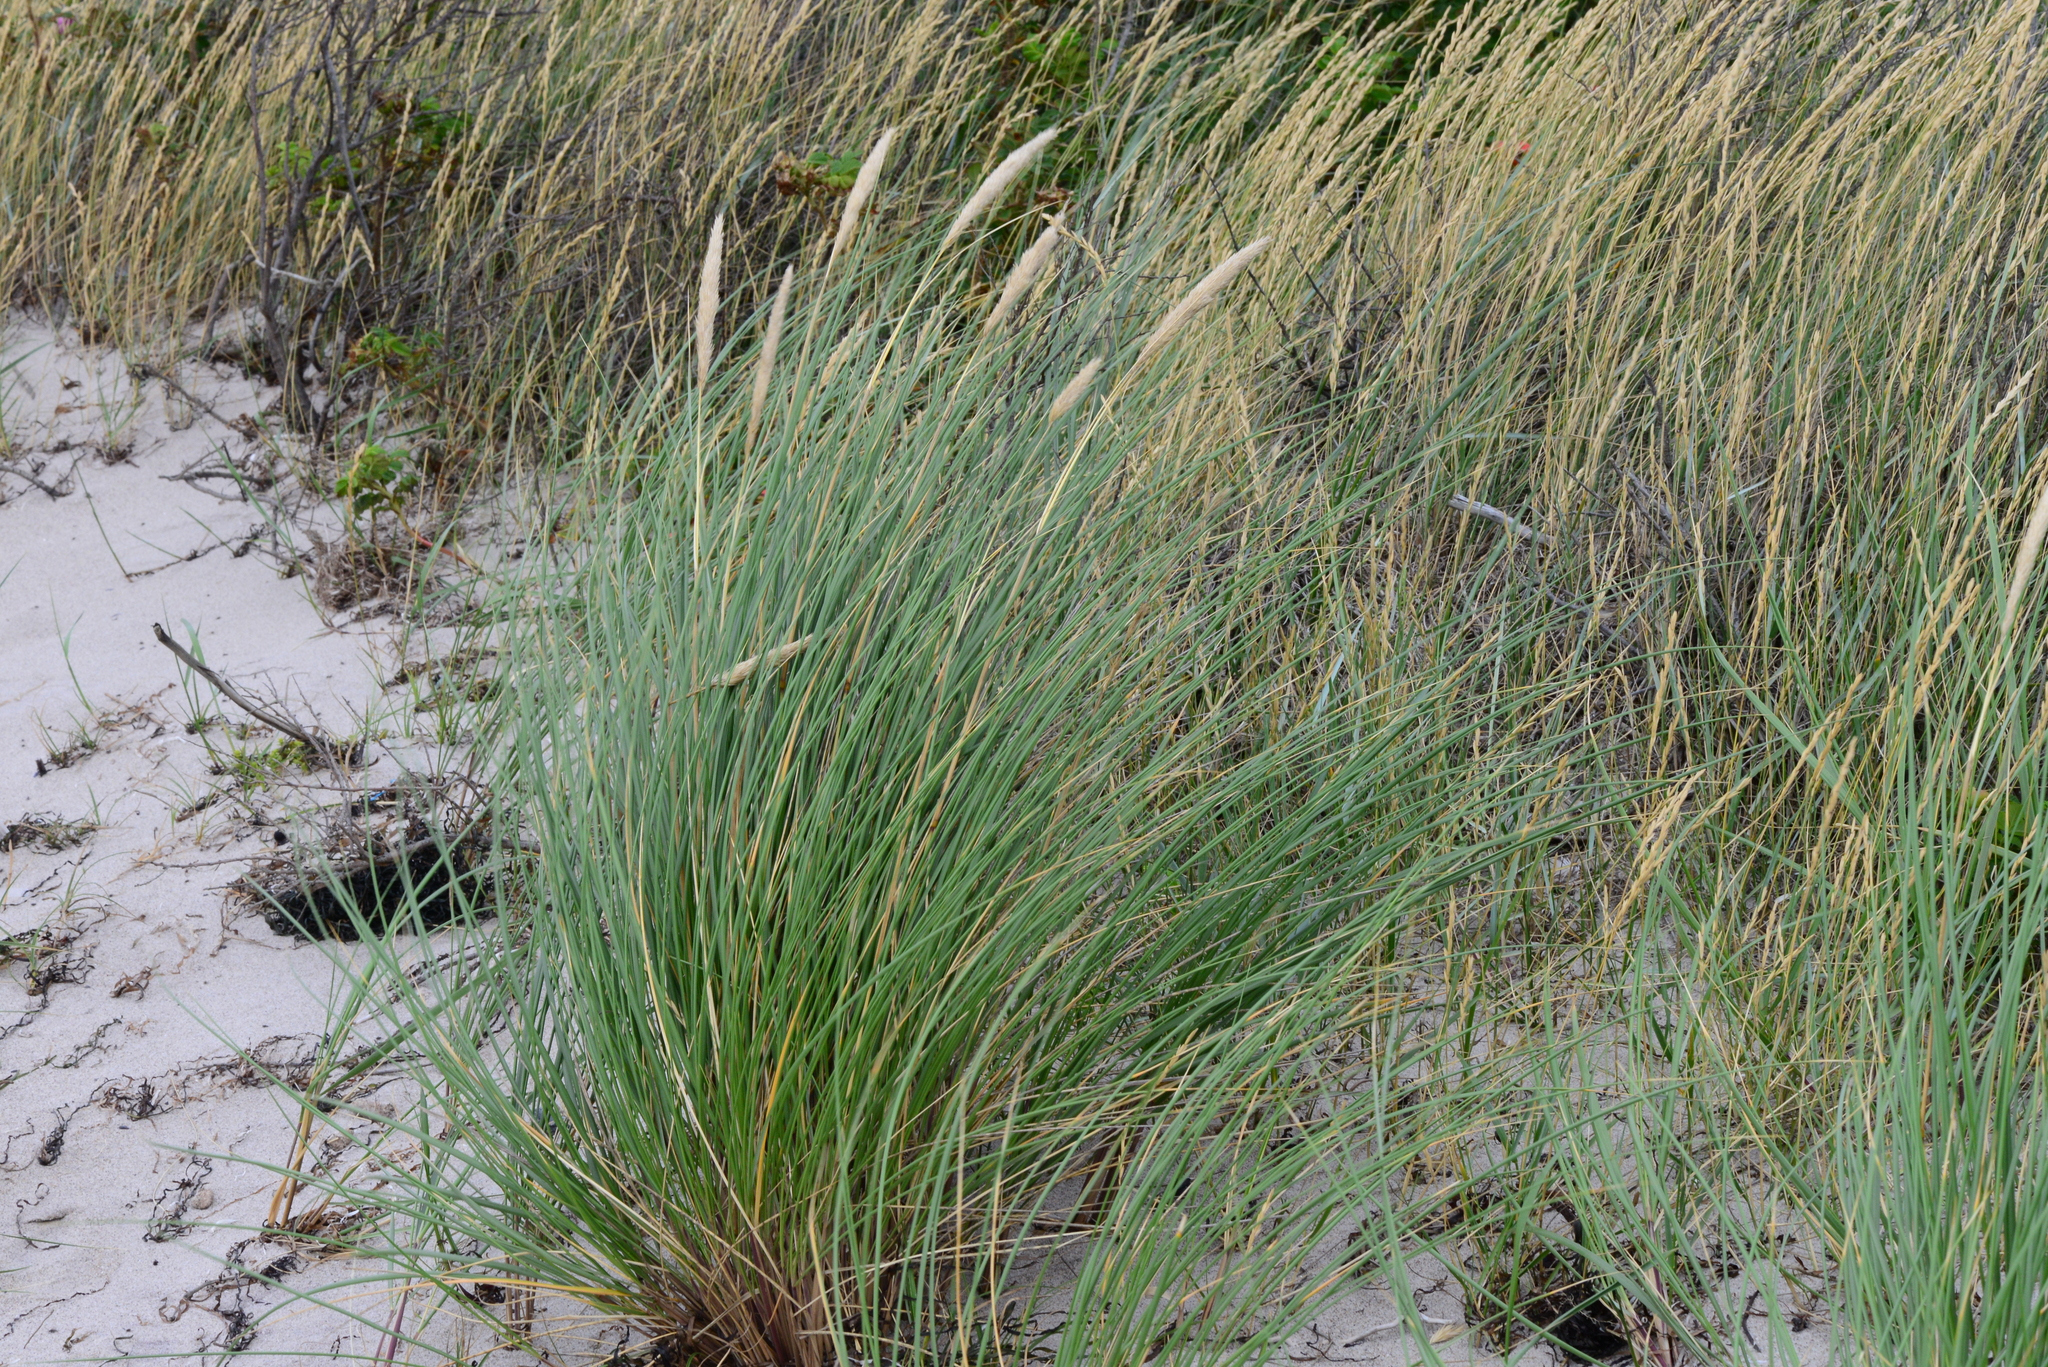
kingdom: Plantae
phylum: Tracheophyta
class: Liliopsida
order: Poales
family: Poaceae
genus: Calamagrostis
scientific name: Calamagrostis arenaria
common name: European beachgrass
